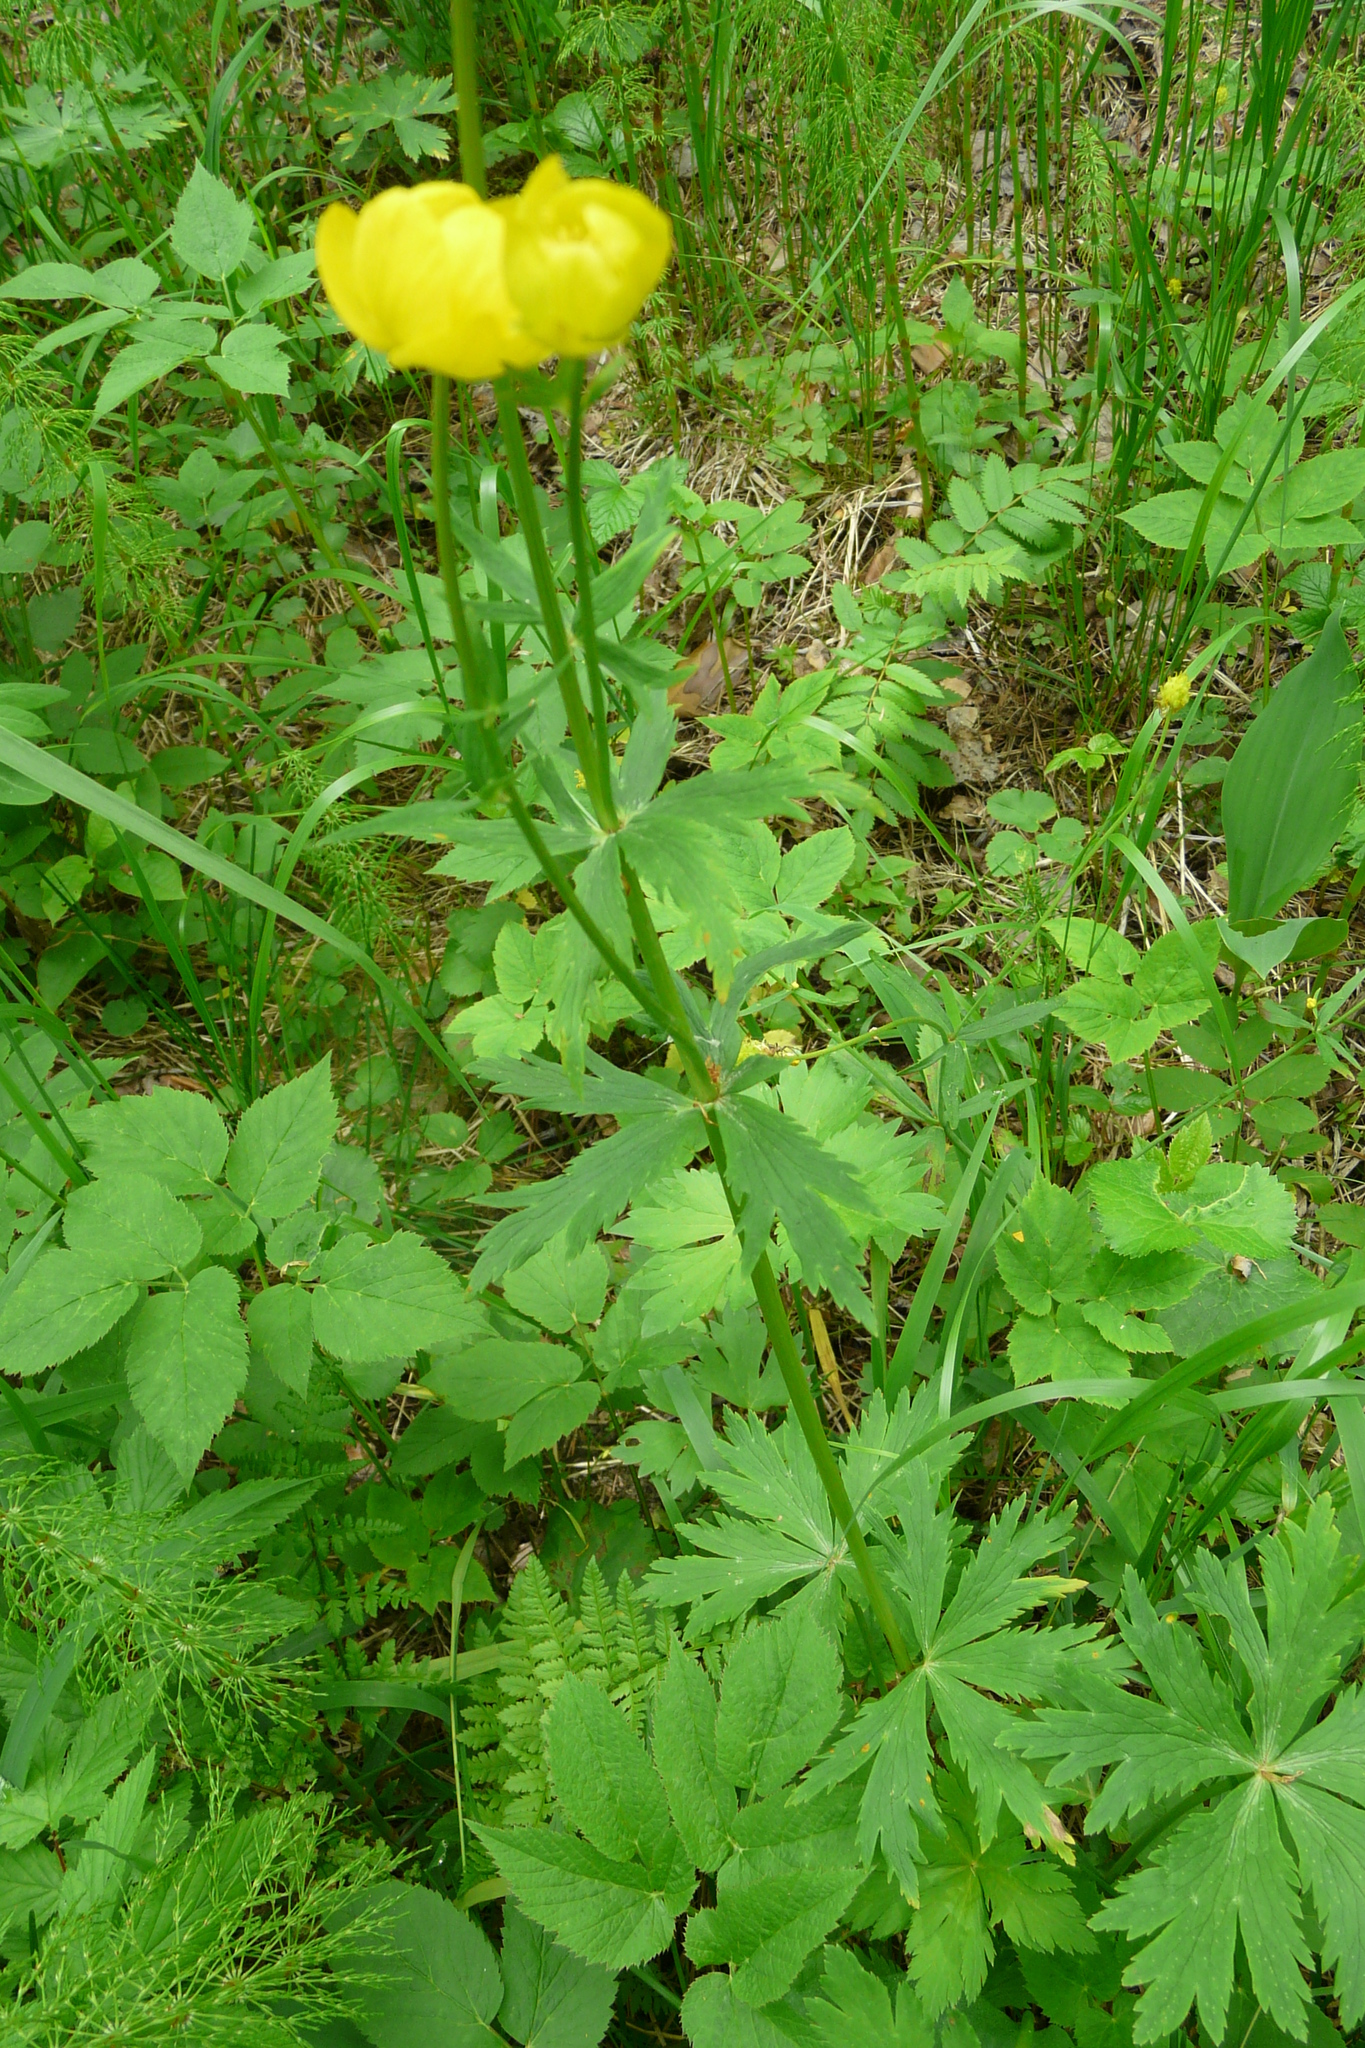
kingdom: Plantae
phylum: Tracheophyta
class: Magnoliopsida
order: Ranunculales
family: Ranunculaceae
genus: Trollius
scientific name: Trollius europaeus
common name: European globeflower
